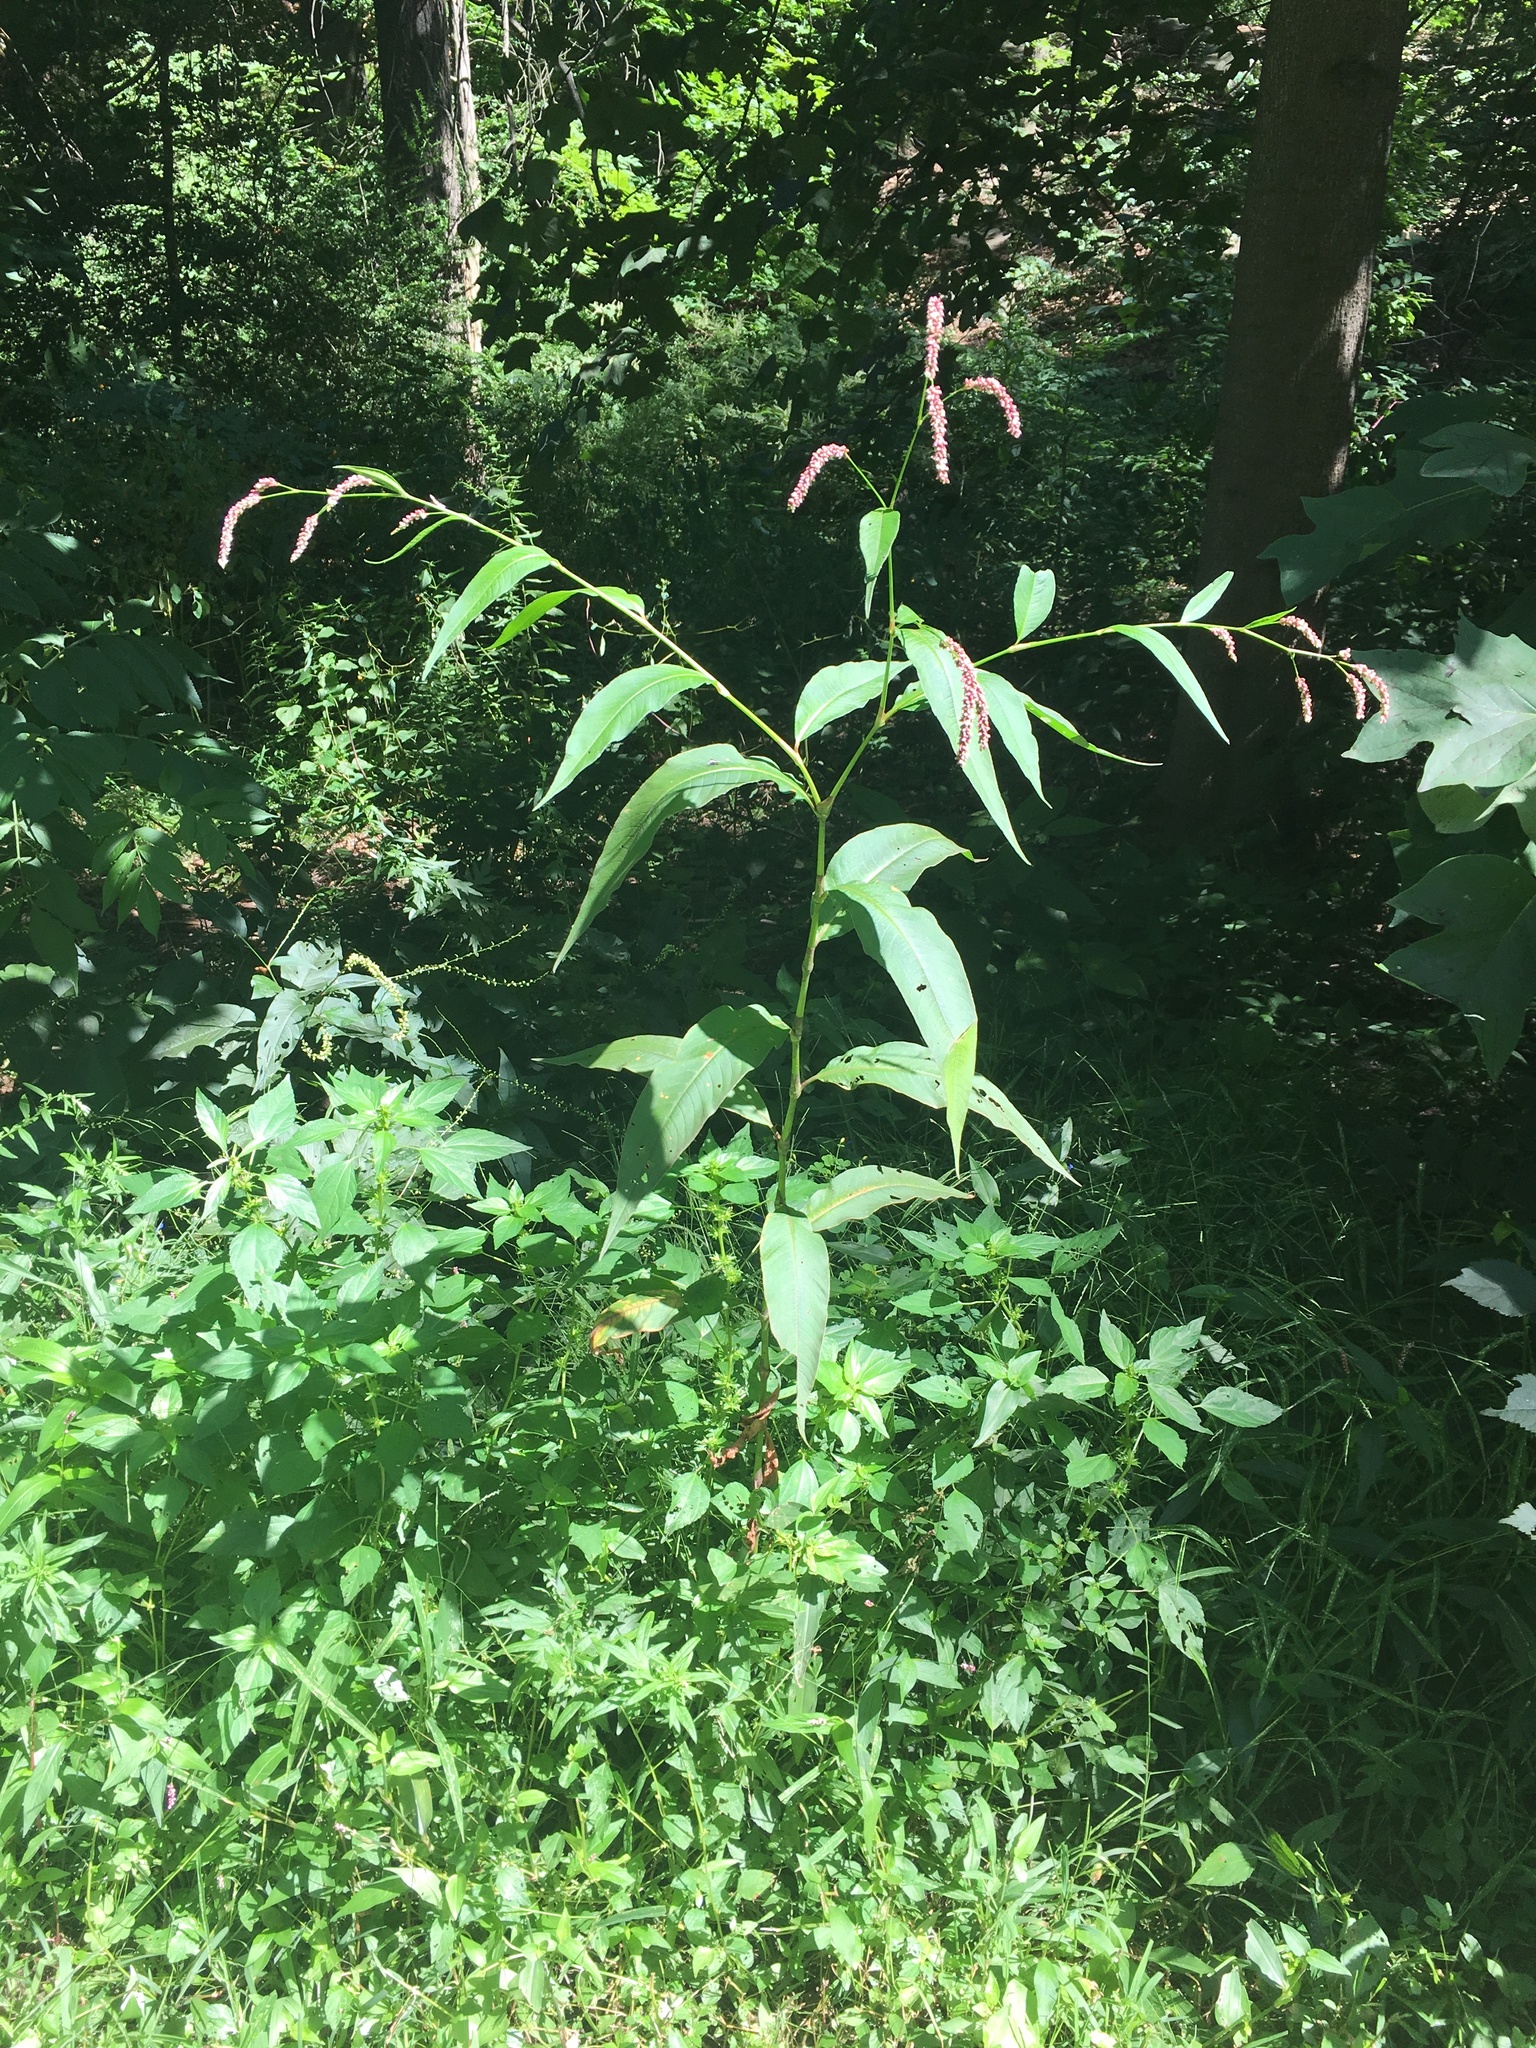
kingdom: Plantae
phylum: Tracheophyta
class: Magnoliopsida
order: Caryophyllales
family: Polygonaceae
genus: Persicaria
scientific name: Persicaria extremiorientalis
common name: Far-eastern smartweed
